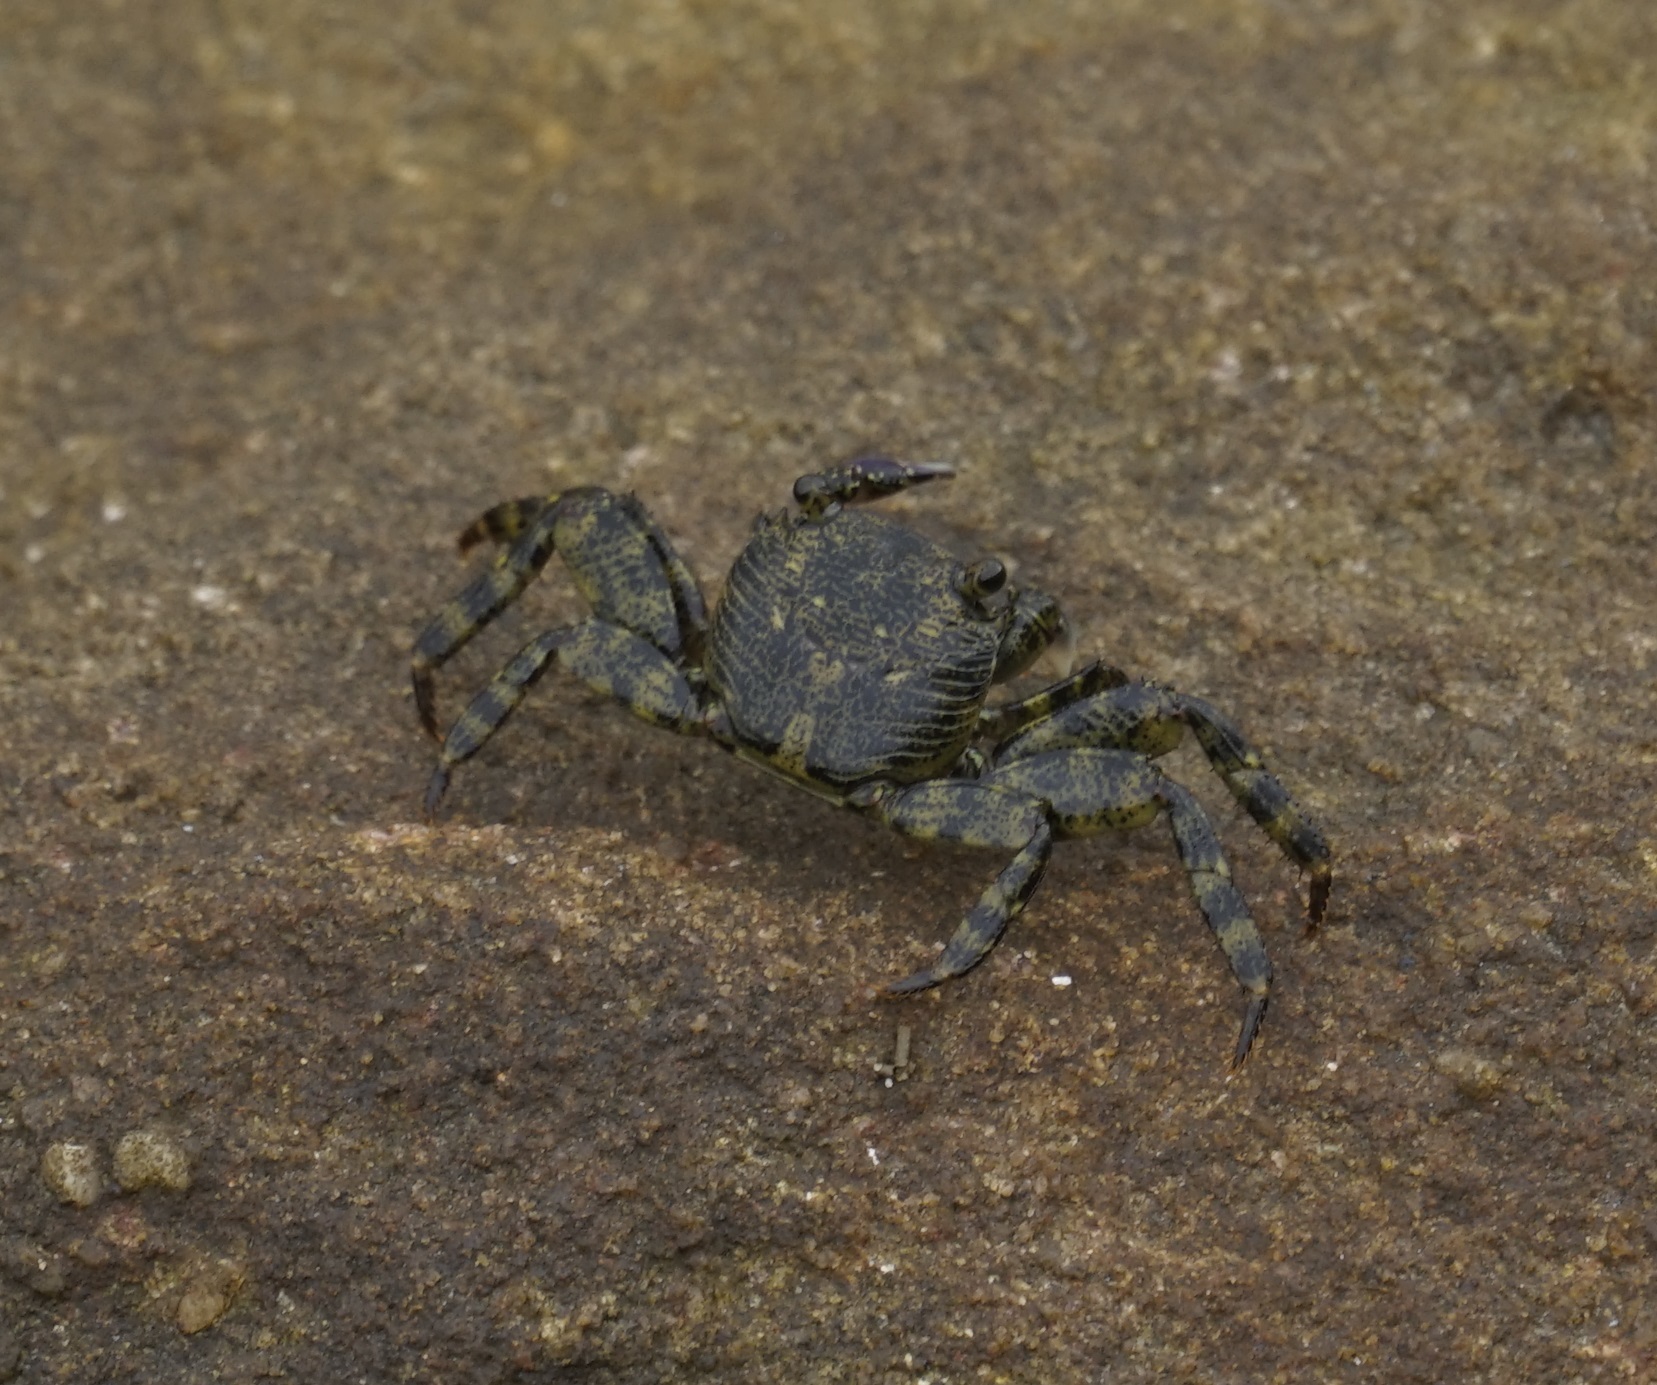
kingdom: Animalia
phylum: Arthropoda
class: Malacostraca
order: Decapoda
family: Grapsidae
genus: Leptograpsus
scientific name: Leptograpsus variegatus
